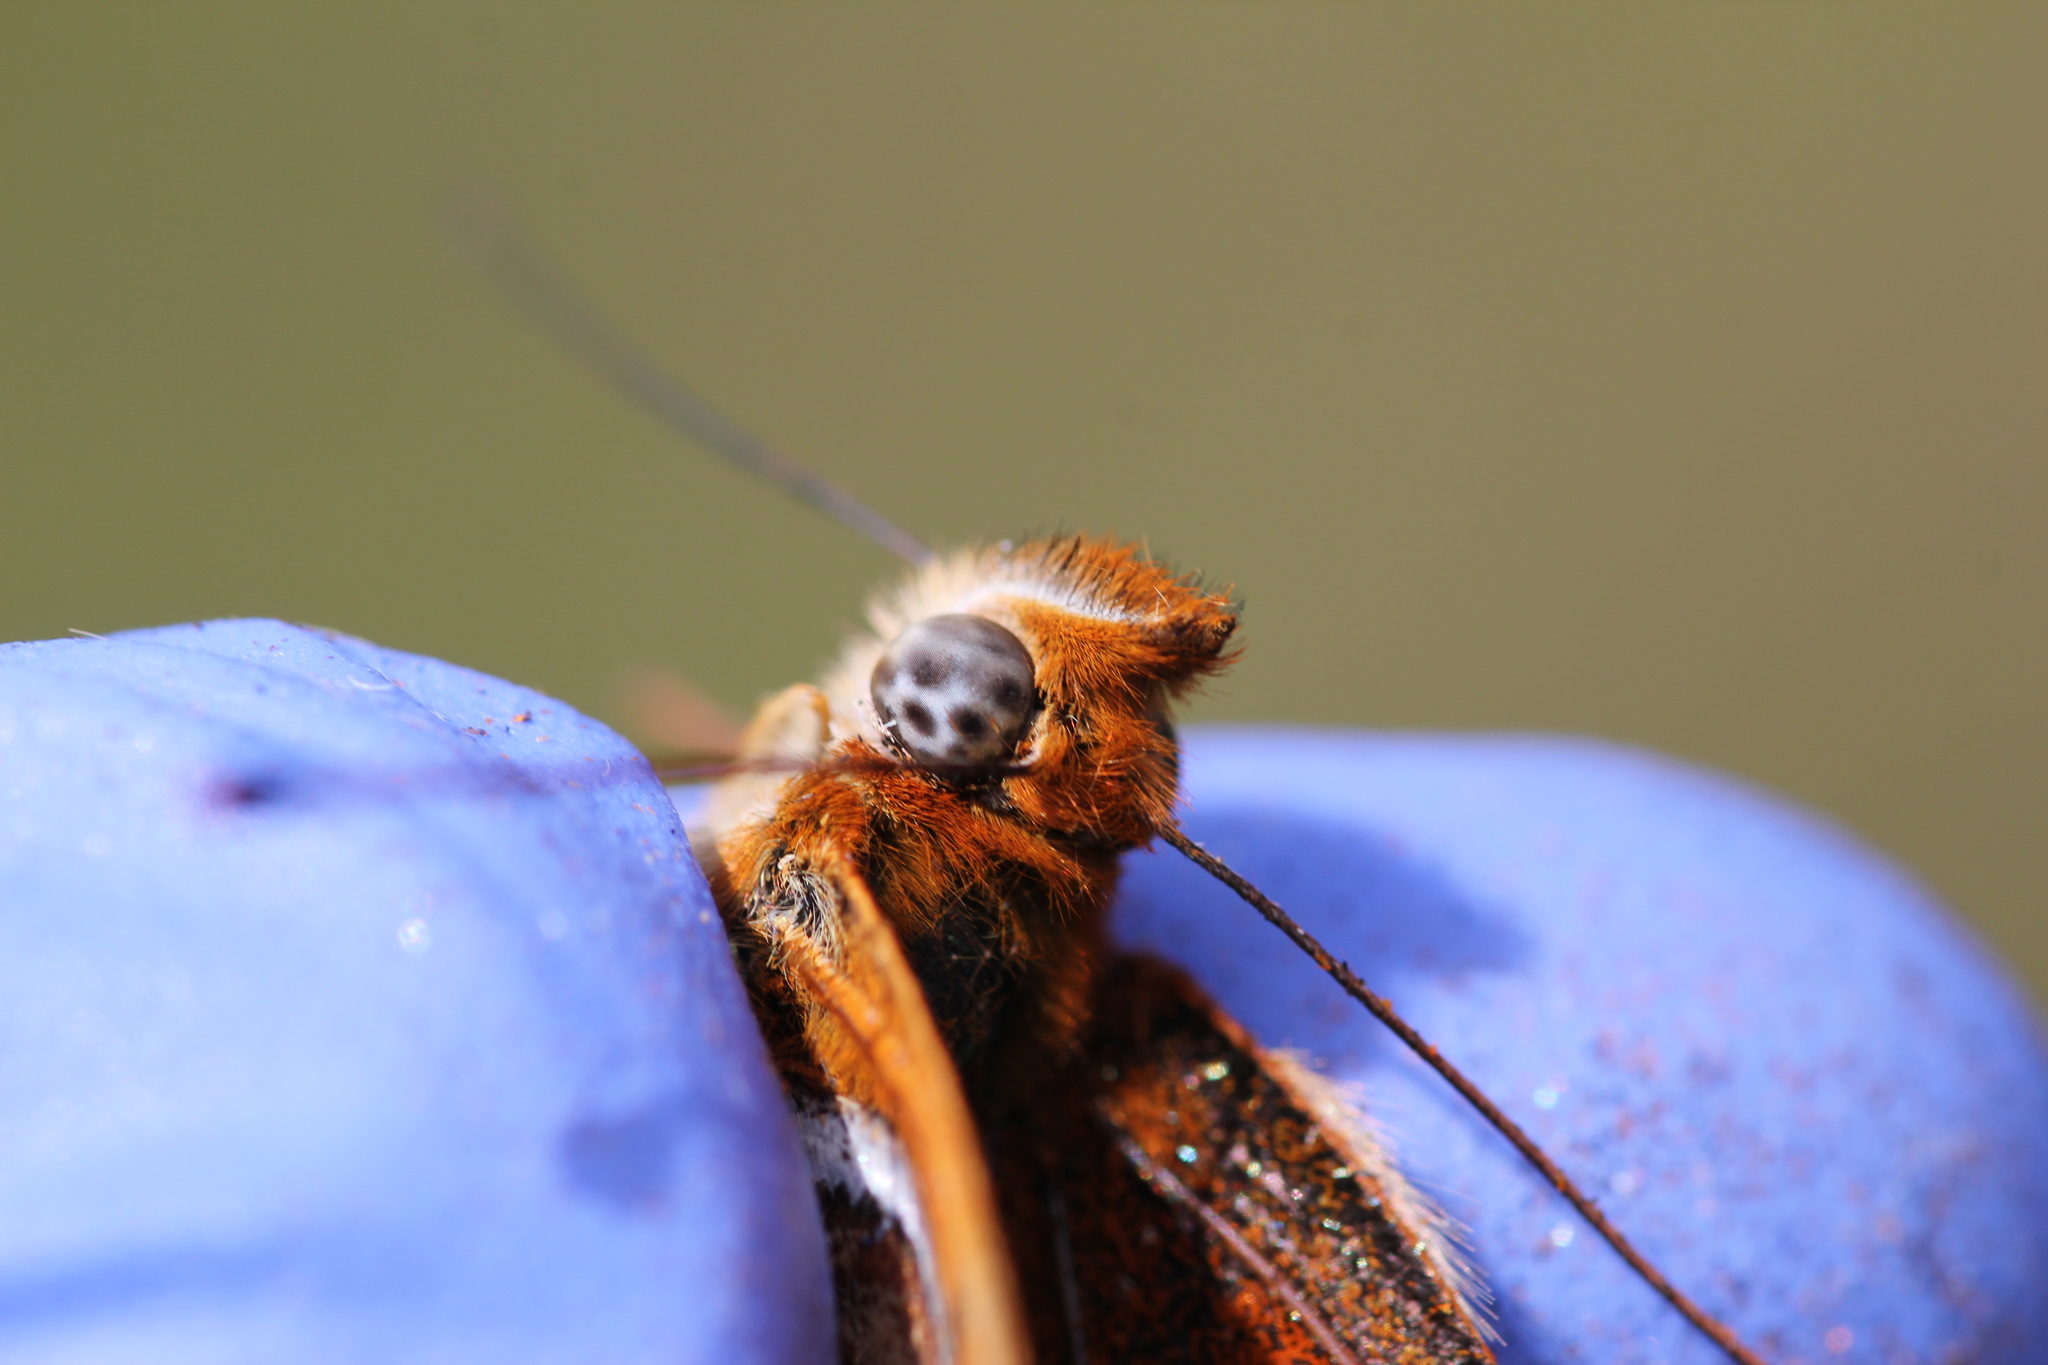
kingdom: Animalia
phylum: Arthropoda
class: Insecta
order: Lepidoptera
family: Nymphalidae
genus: Speyeria
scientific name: Speyeria atlantis
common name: Atlantis fritillary
